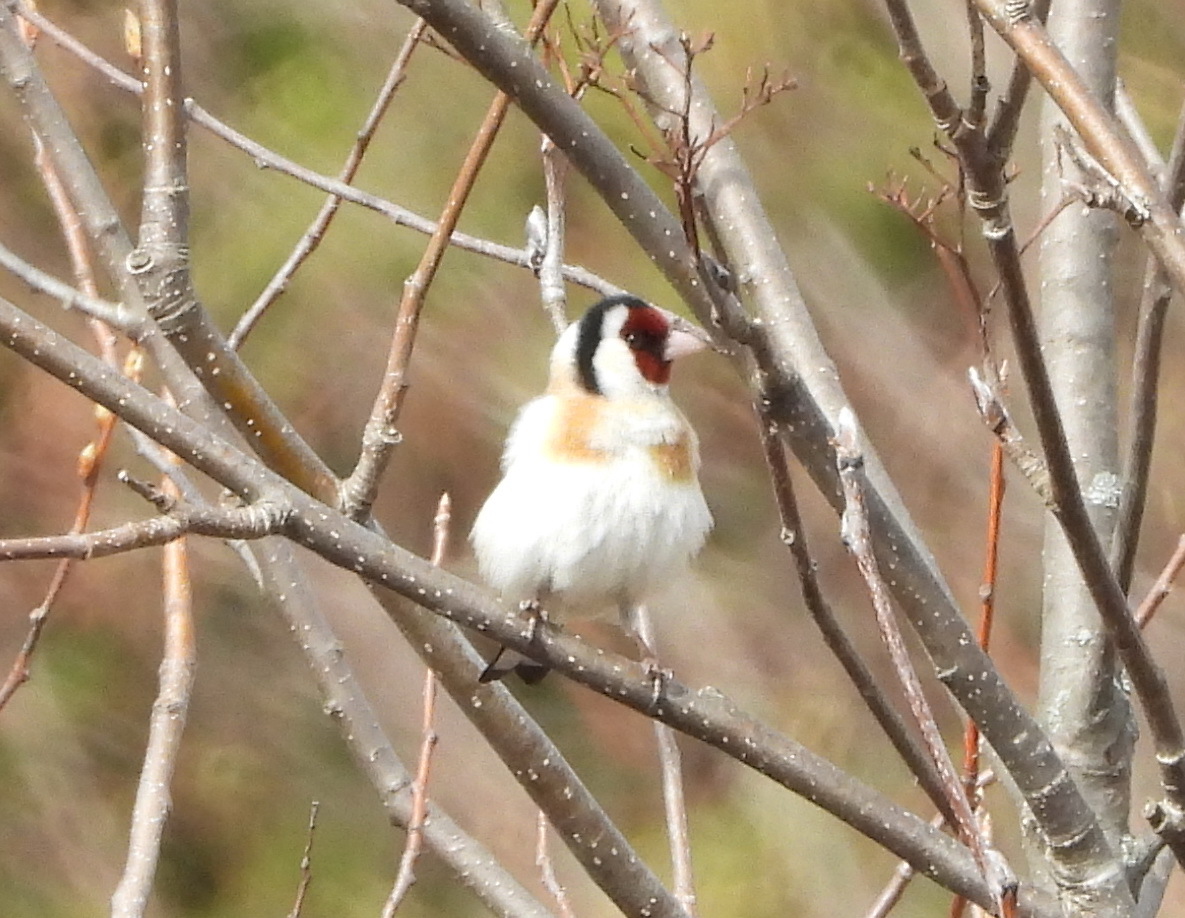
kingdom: Animalia
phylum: Chordata
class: Aves
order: Passeriformes
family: Fringillidae
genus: Carduelis
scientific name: Carduelis carduelis
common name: European goldfinch
